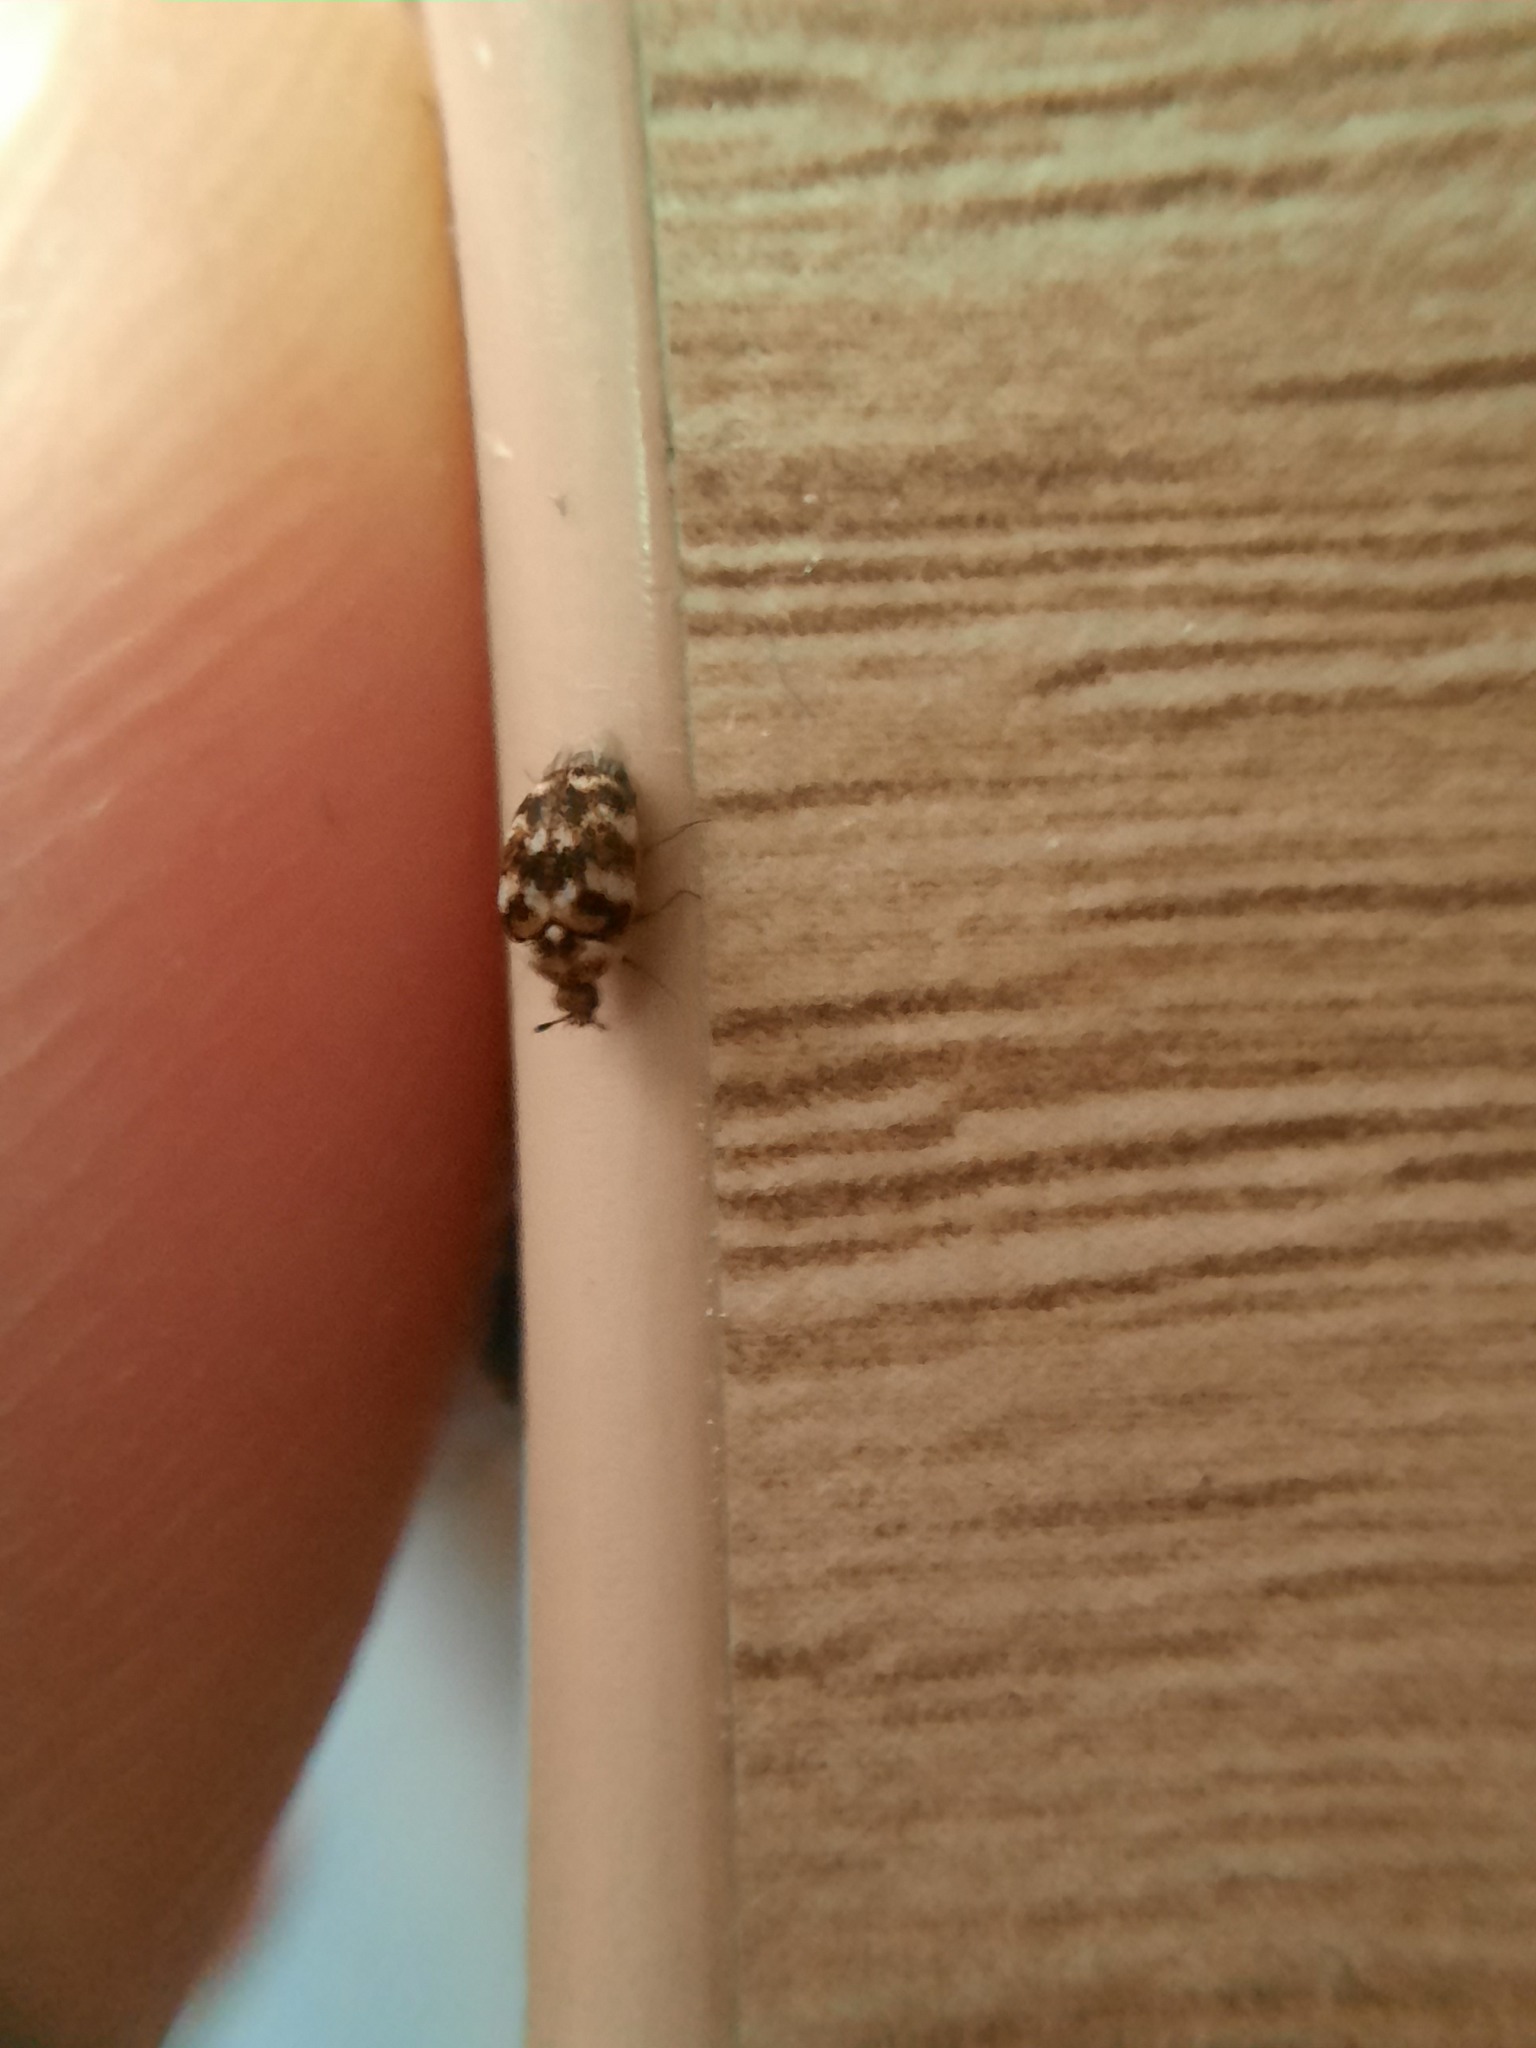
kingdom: Animalia
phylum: Arthropoda
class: Insecta
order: Coleoptera
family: Dermestidae
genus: Anthrenus
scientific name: Anthrenus verbasci
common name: Varied carpet beetle
